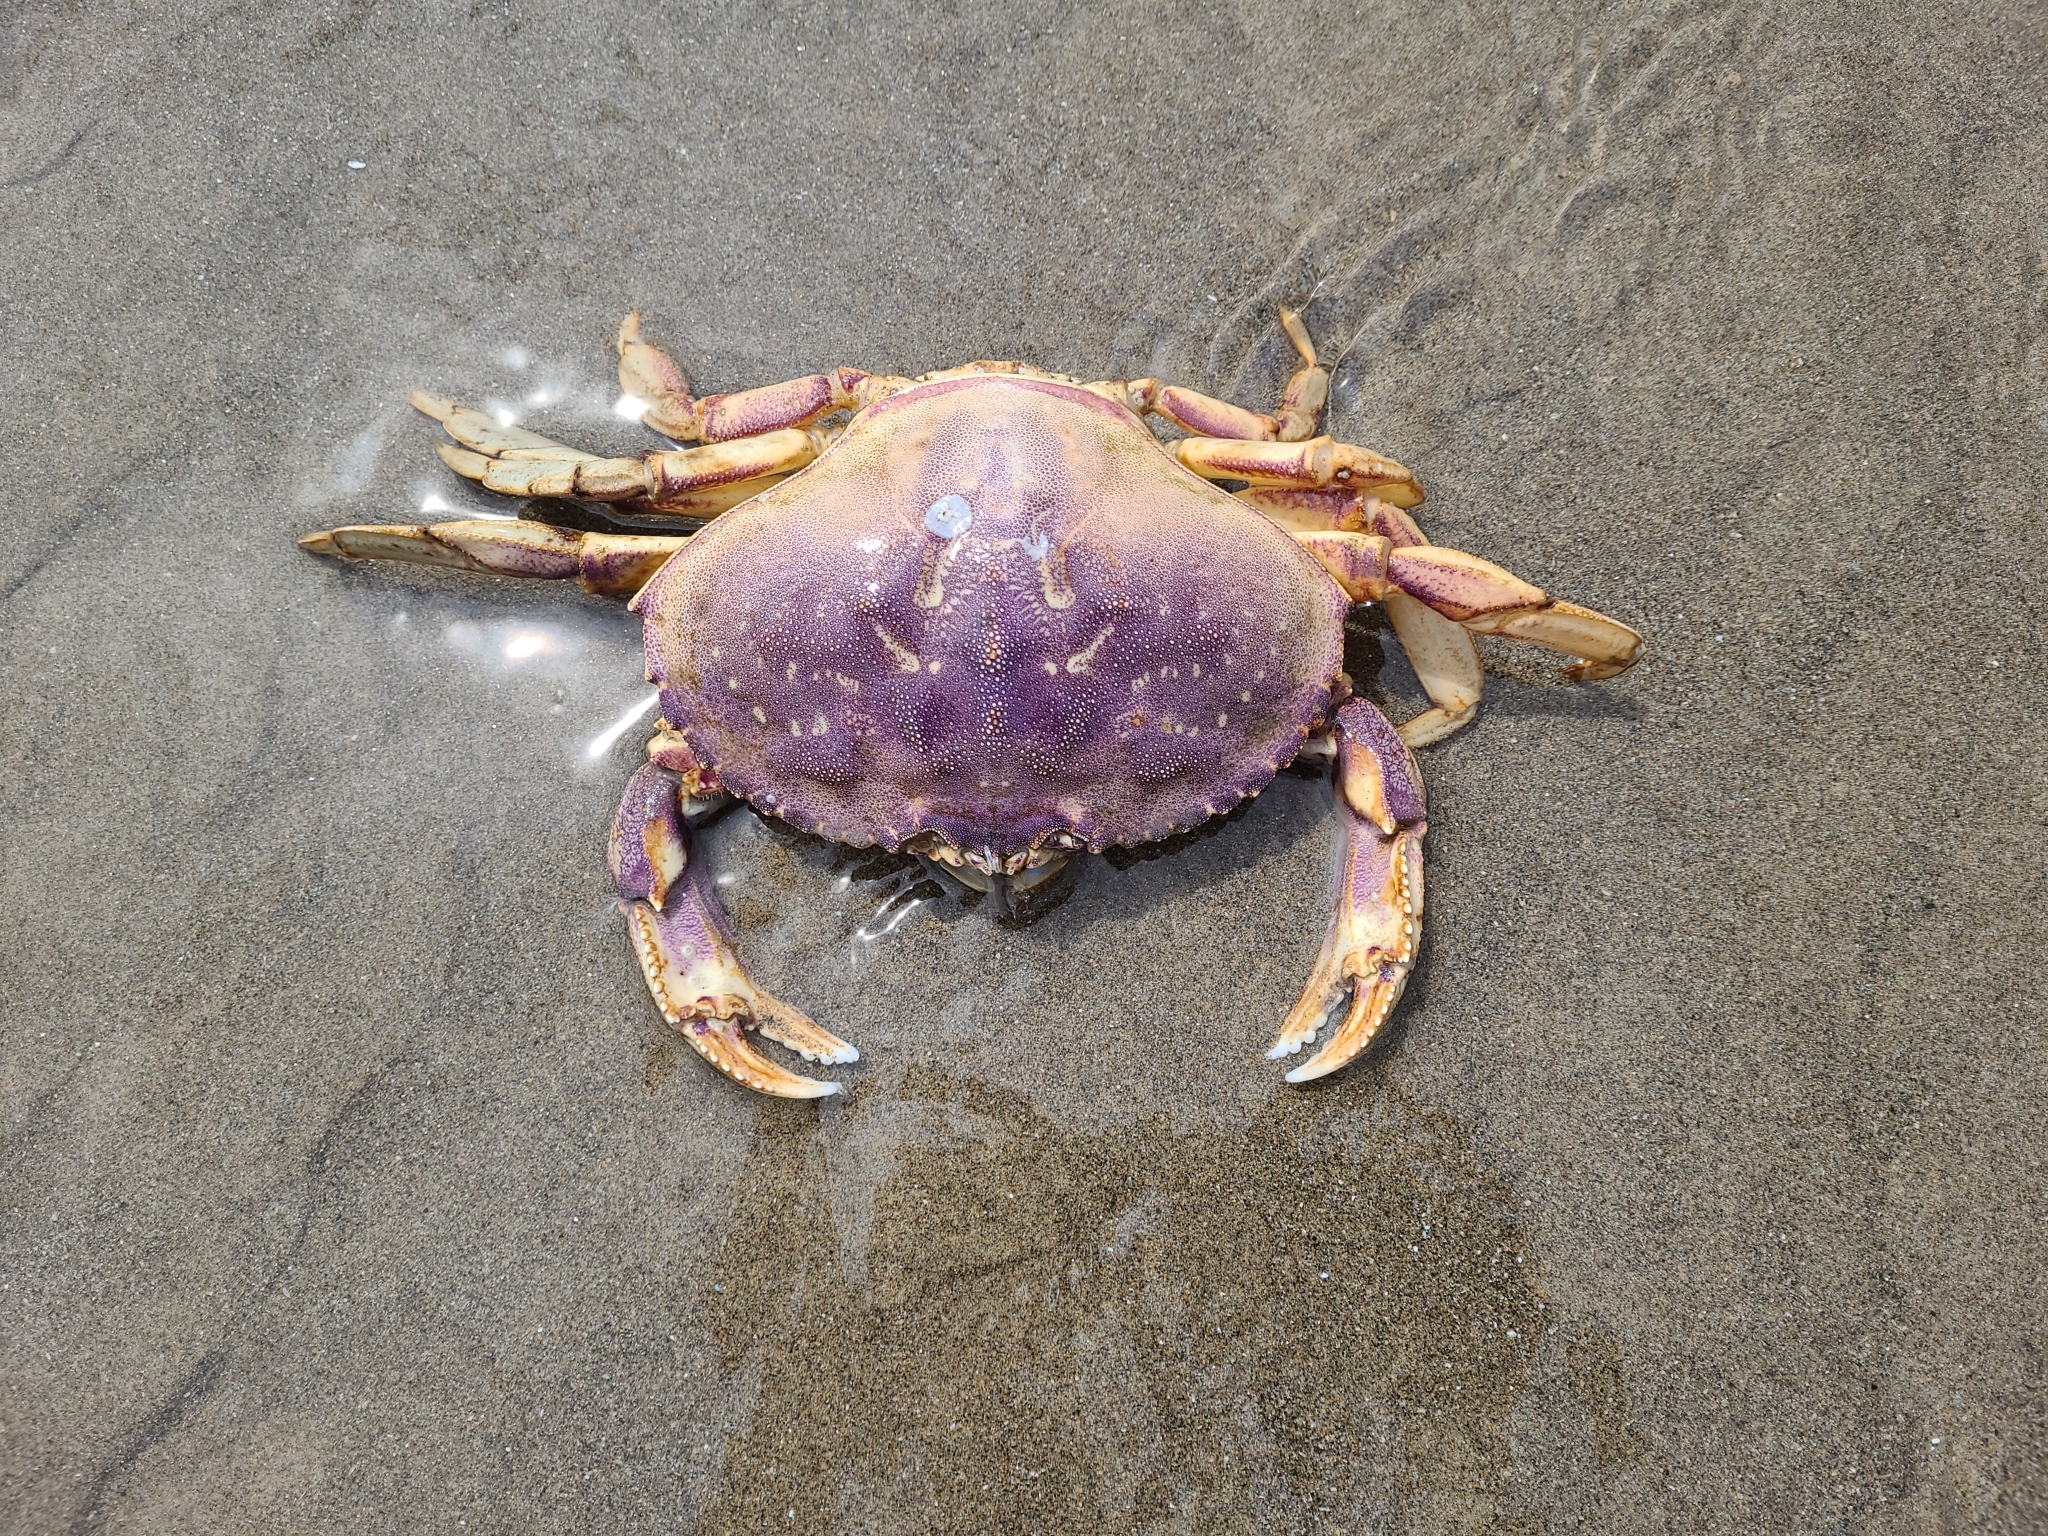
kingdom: Animalia
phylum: Arthropoda
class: Malacostraca
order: Decapoda
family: Cancridae
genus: Metacarcinus
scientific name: Metacarcinus magister
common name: Californian crab
